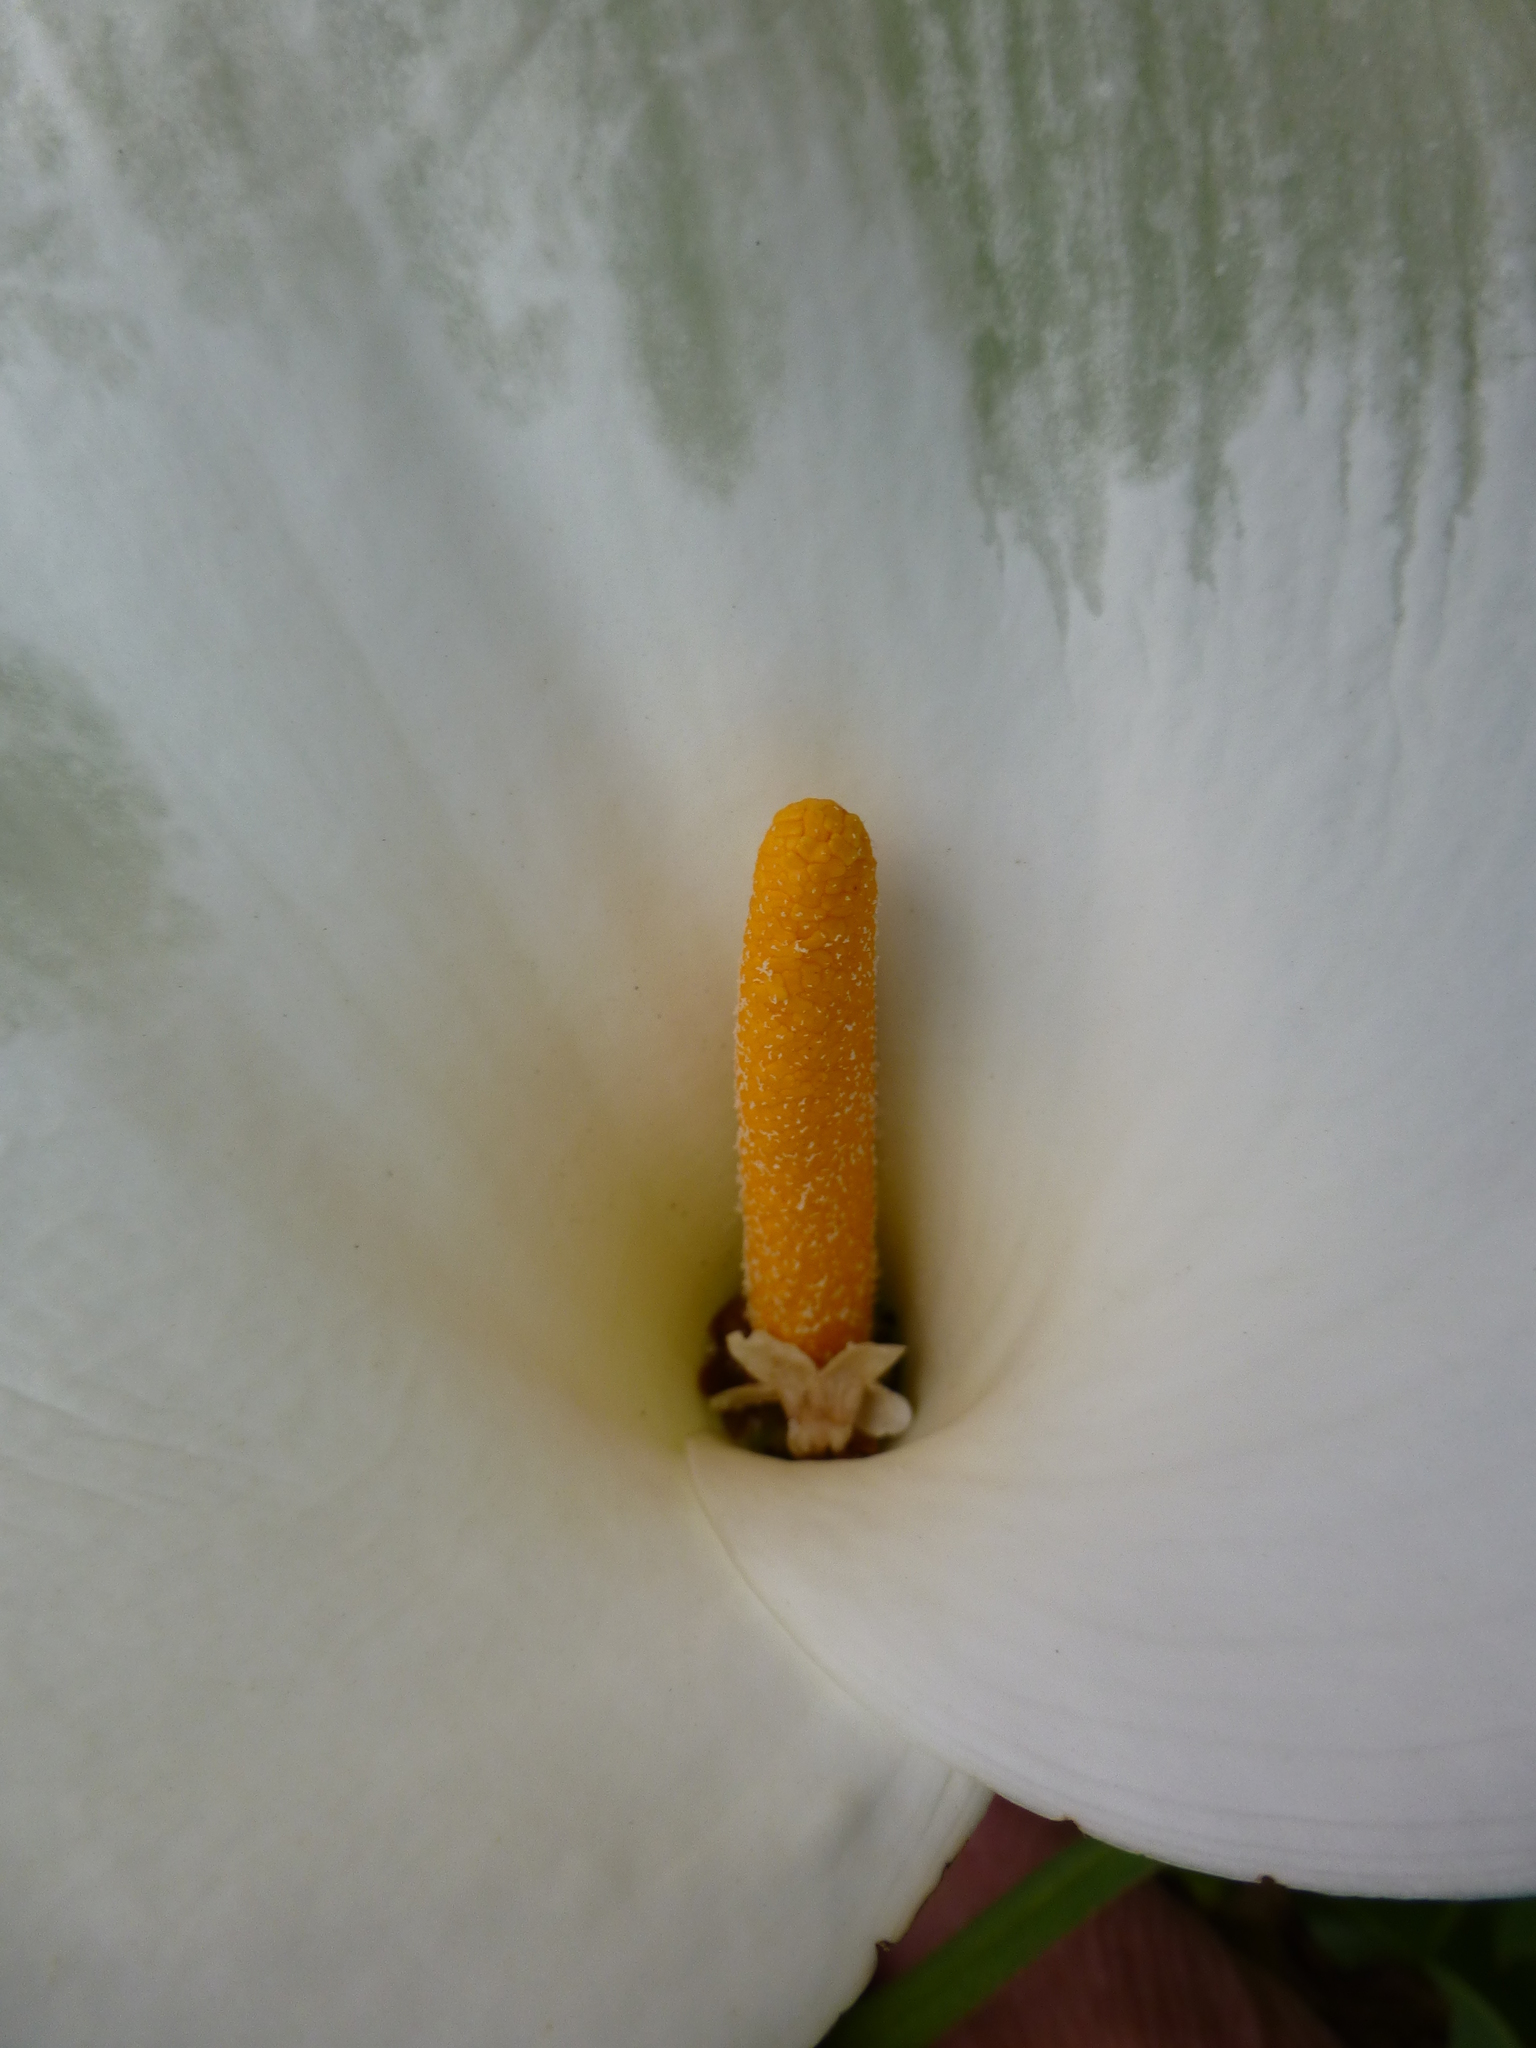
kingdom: Plantae
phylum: Tracheophyta
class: Liliopsida
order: Alismatales
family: Araceae
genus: Zantedeschia
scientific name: Zantedeschia aethiopica
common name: Altar-lily
